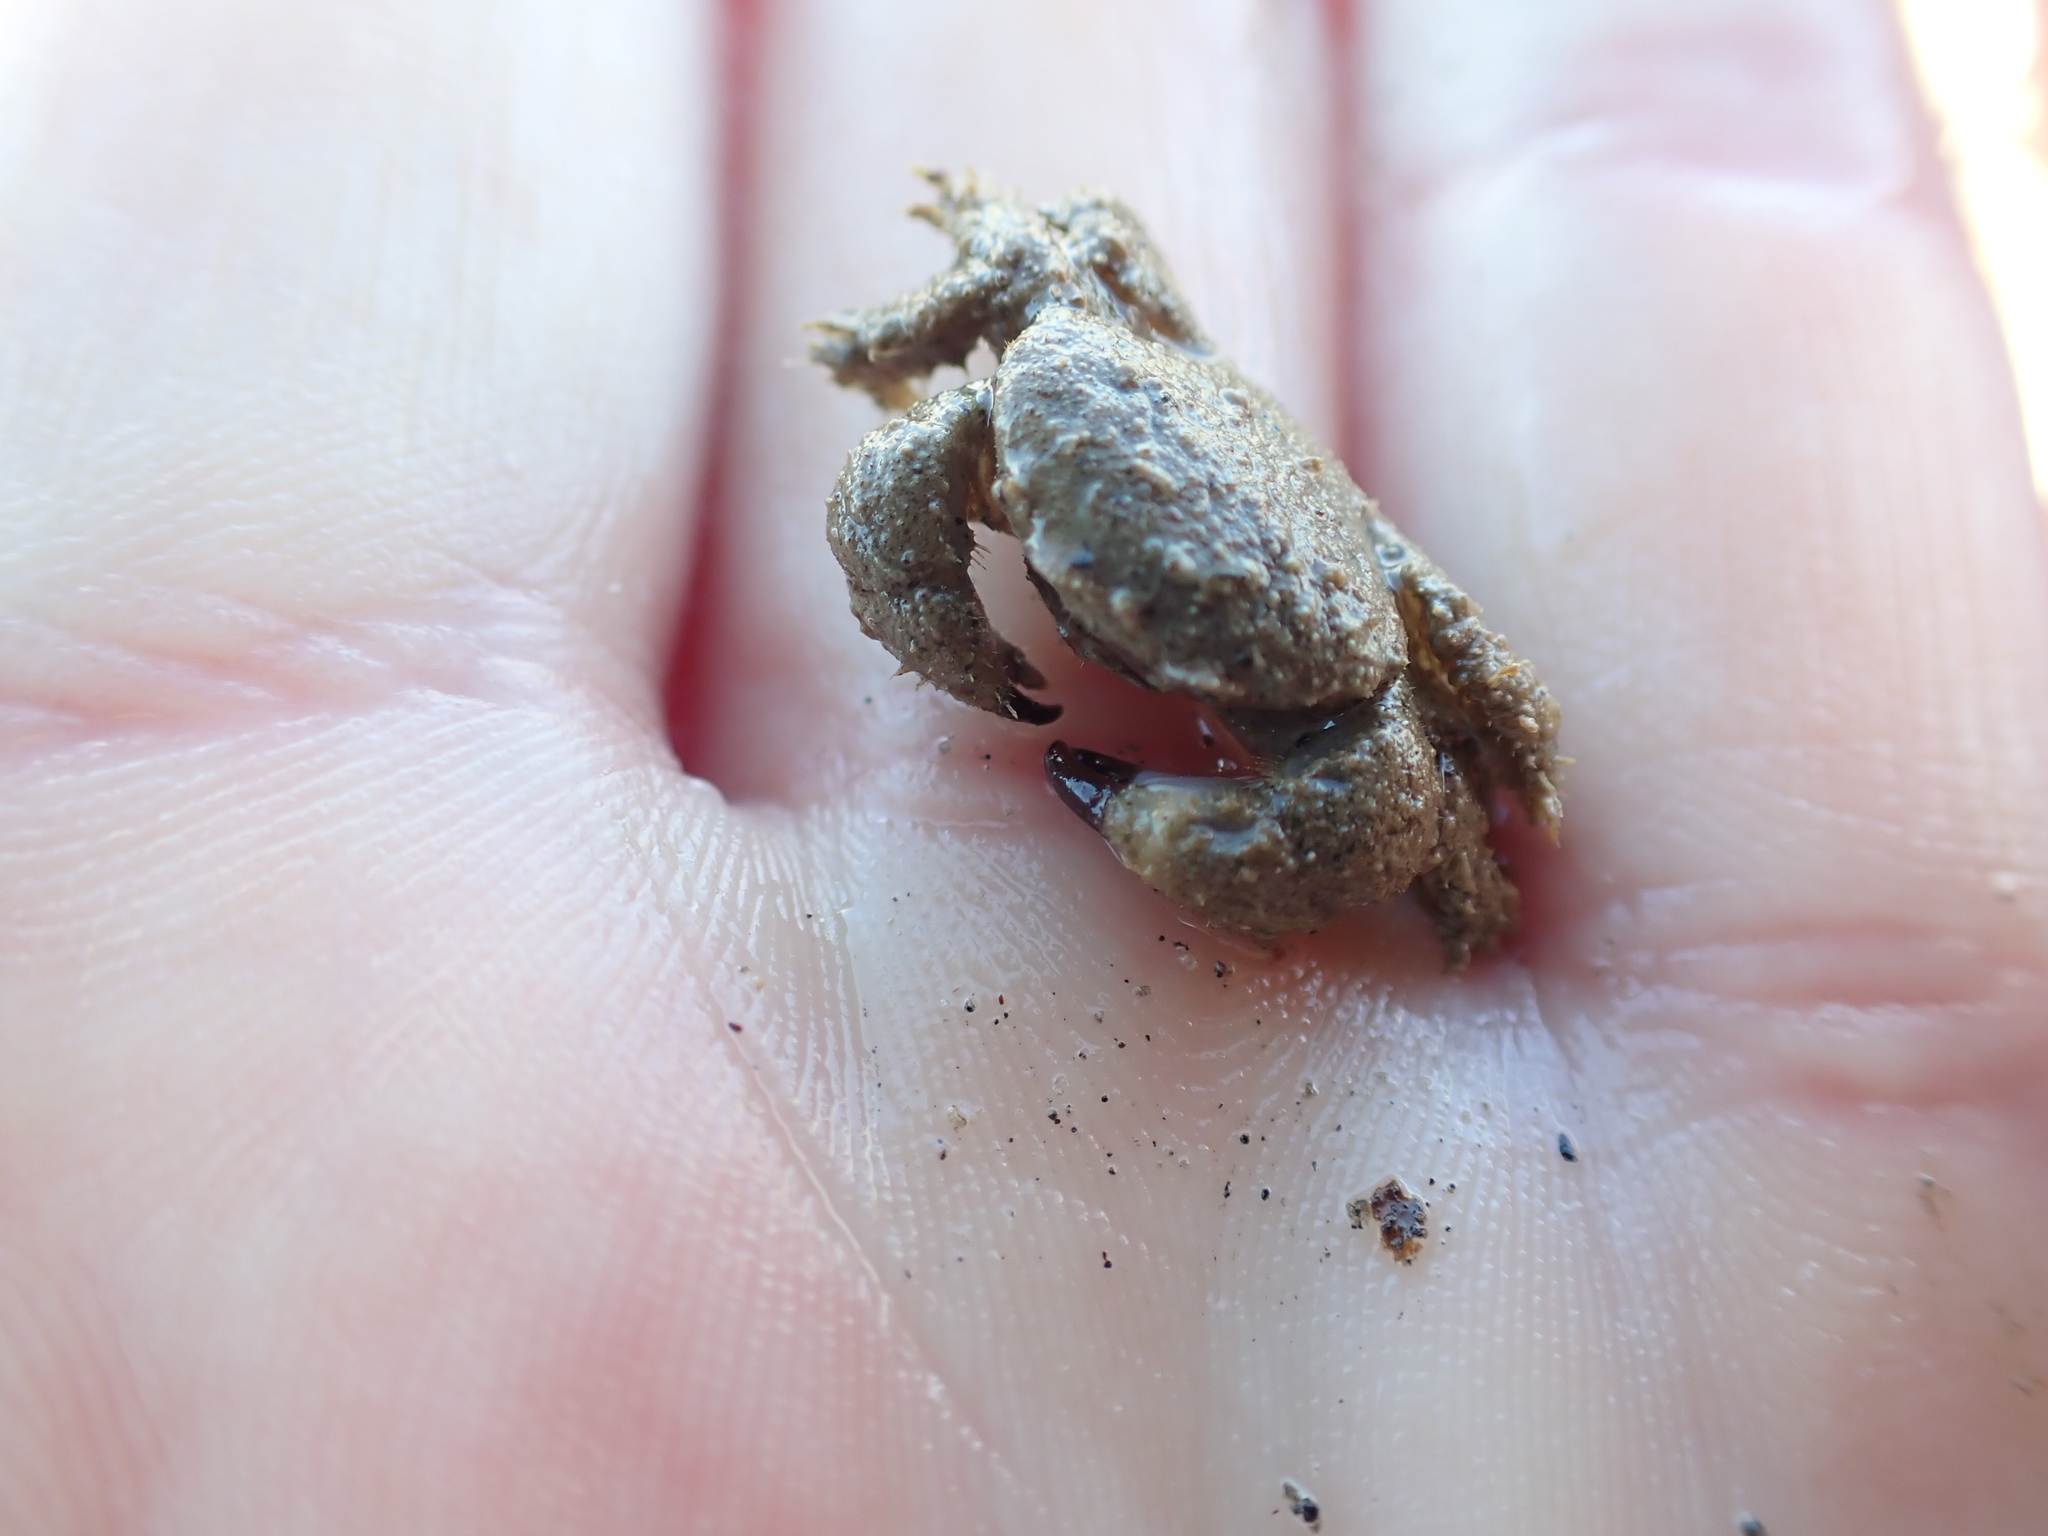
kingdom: Animalia
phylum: Arthropoda
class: Malacostraca
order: Decapoda
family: Pilumnidae
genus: Pilumnus
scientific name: Pilumnus lumpinus
